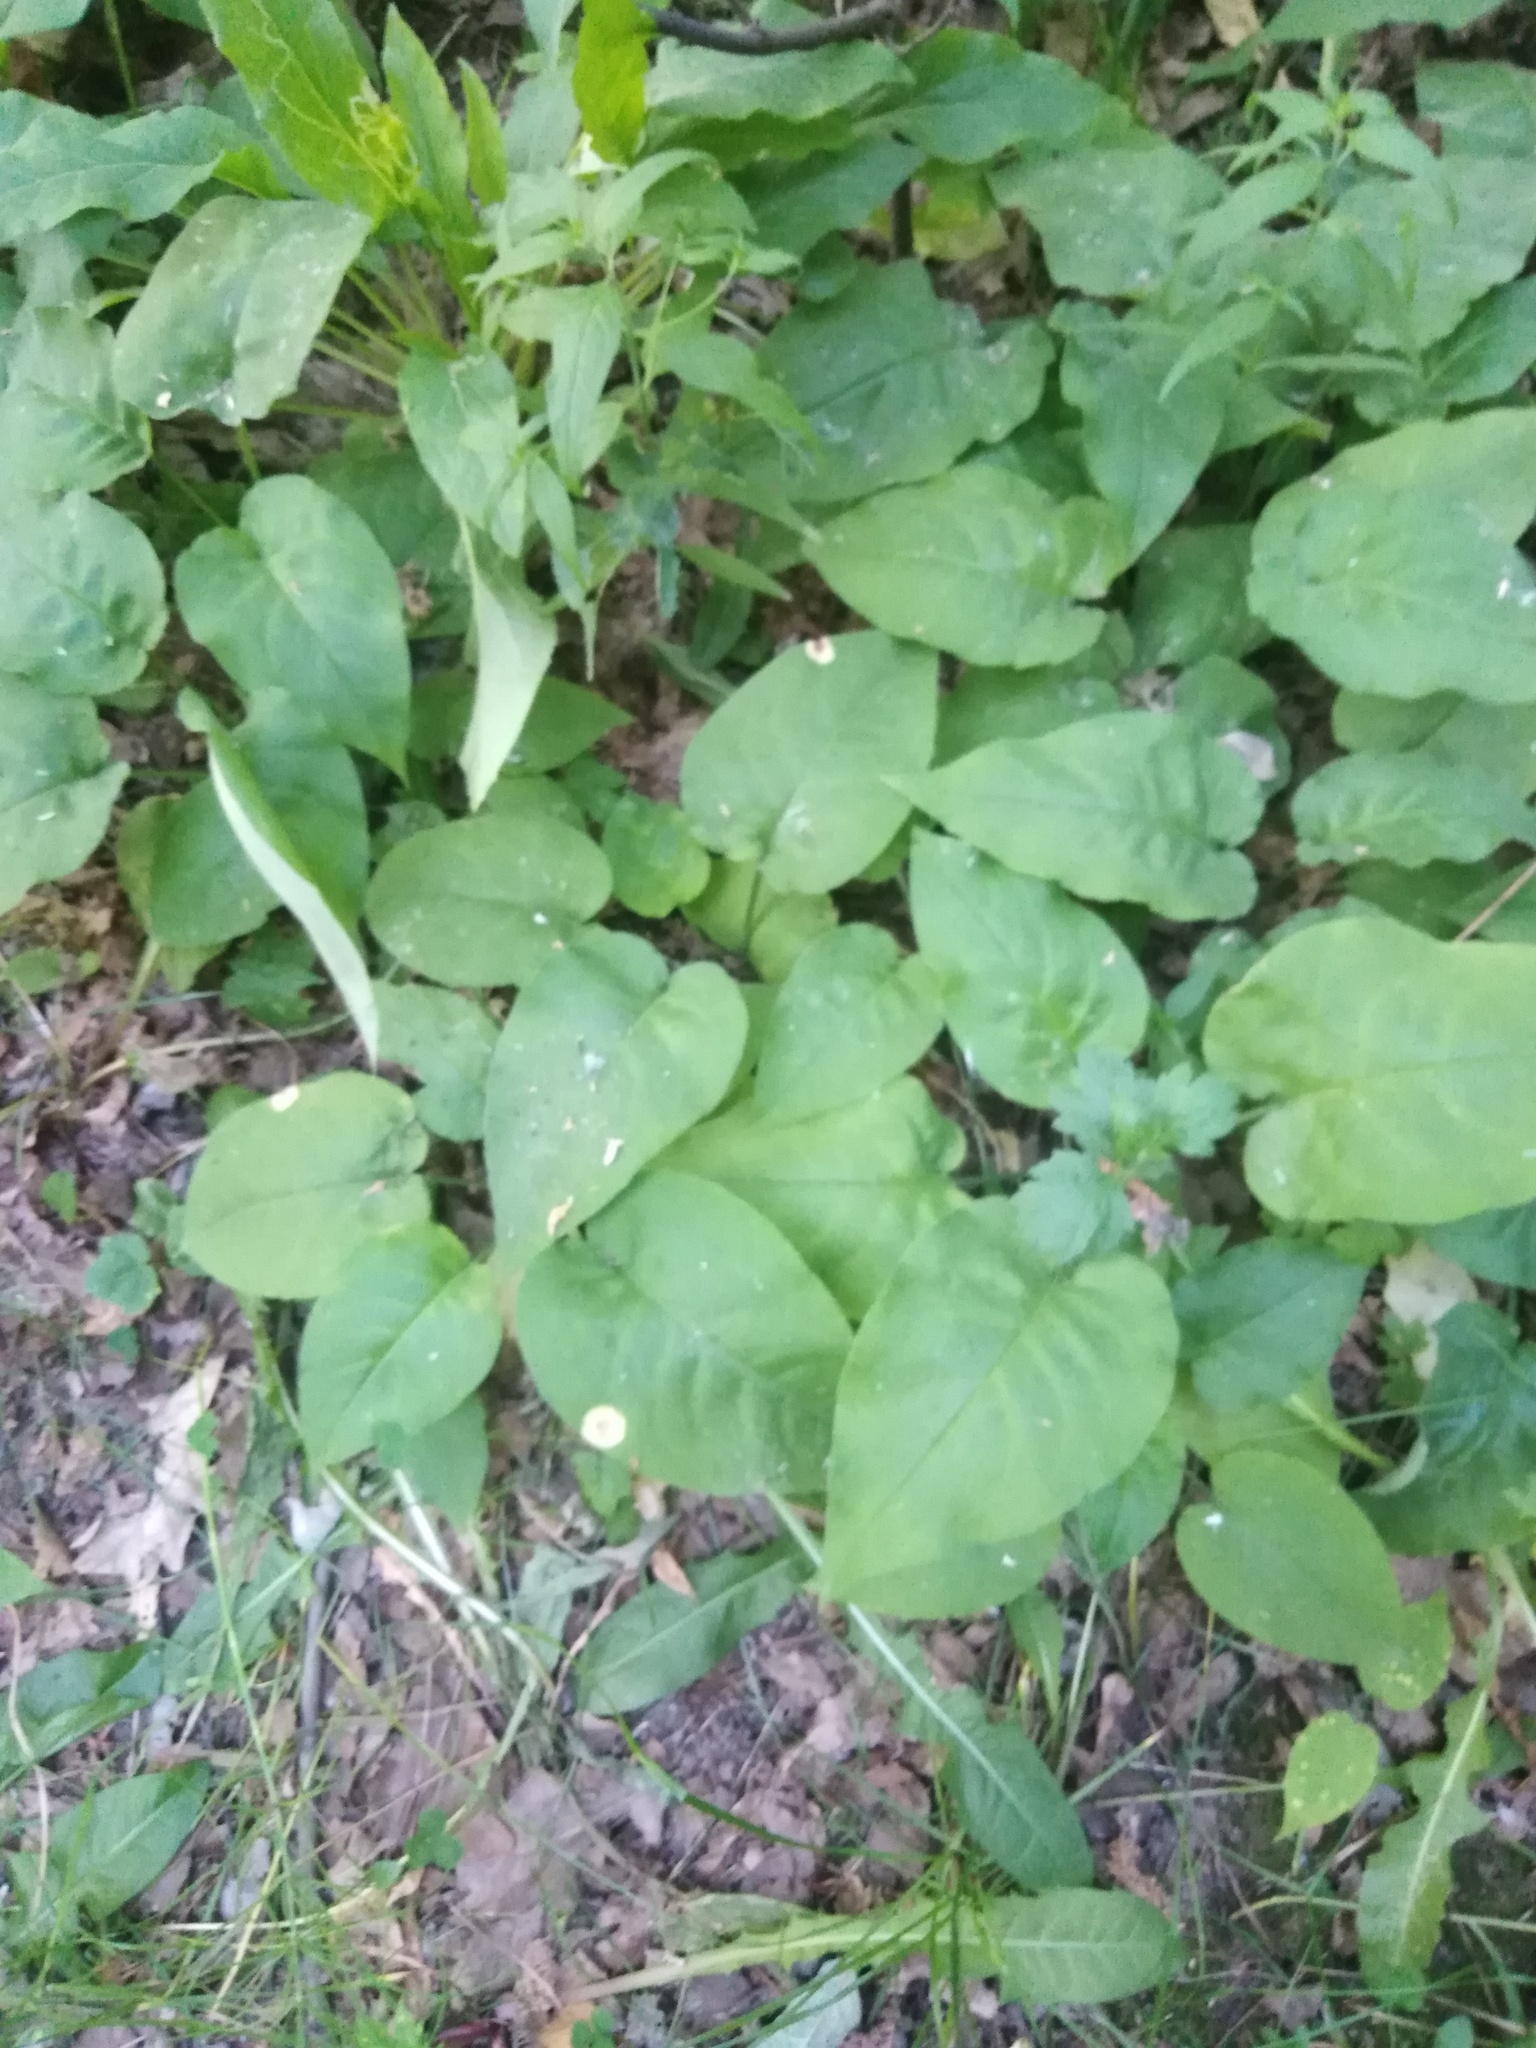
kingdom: Plantae
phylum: Tracheophyta
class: Magnoliopsida
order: Boraginales
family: Boraginaceae
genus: Pulmonaria
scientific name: Pulmonaria obscura
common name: Suffolk lungwort
